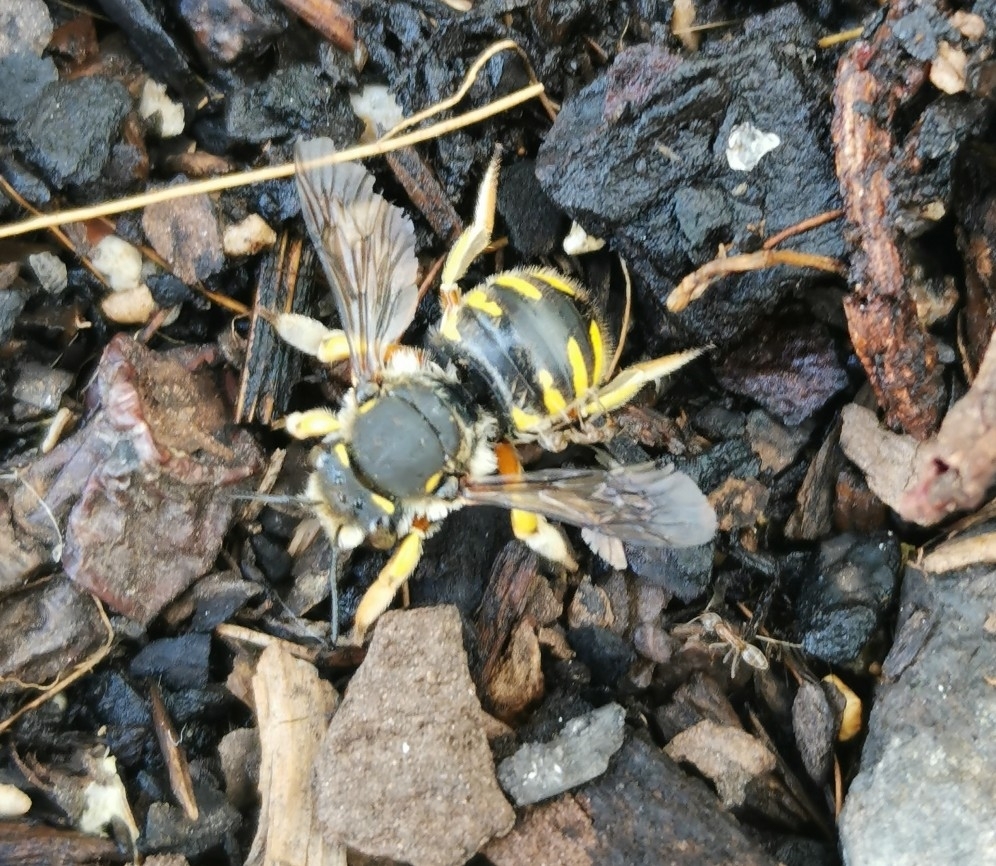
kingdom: Animalia
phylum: Arthropoda
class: Insecta
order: Hymenoptera
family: Megachilidae
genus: Anthidium
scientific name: Anthidium manicatum
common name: Wool carder bee
